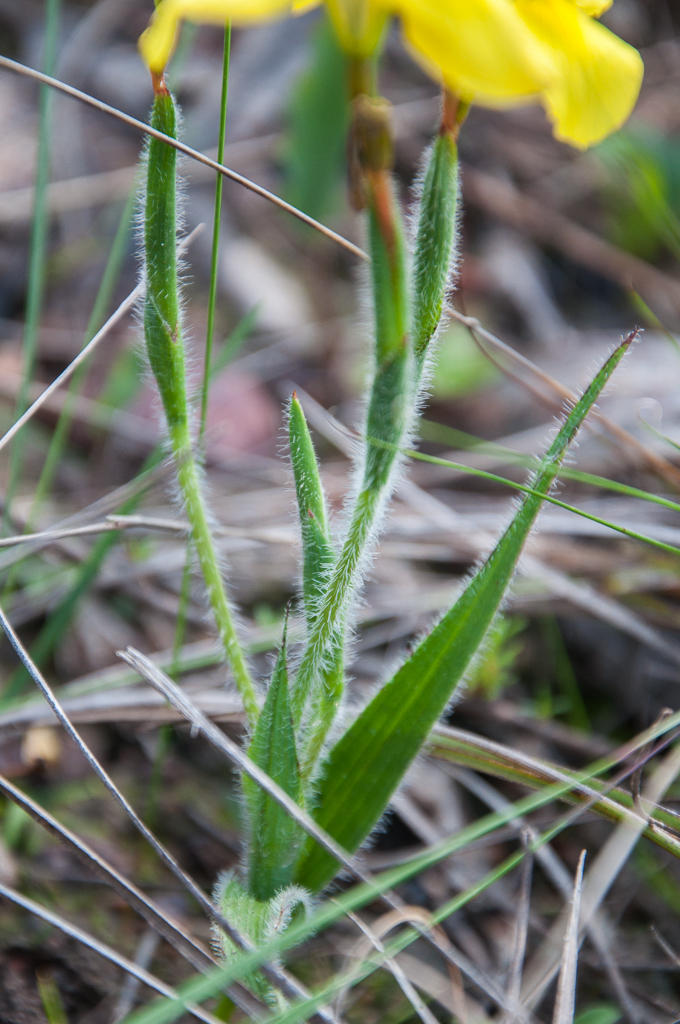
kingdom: Plantae
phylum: Tracheophyta
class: Liliopsida
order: Asparagales
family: Iridaceae
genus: Moraea
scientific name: Moraea papilionacea
